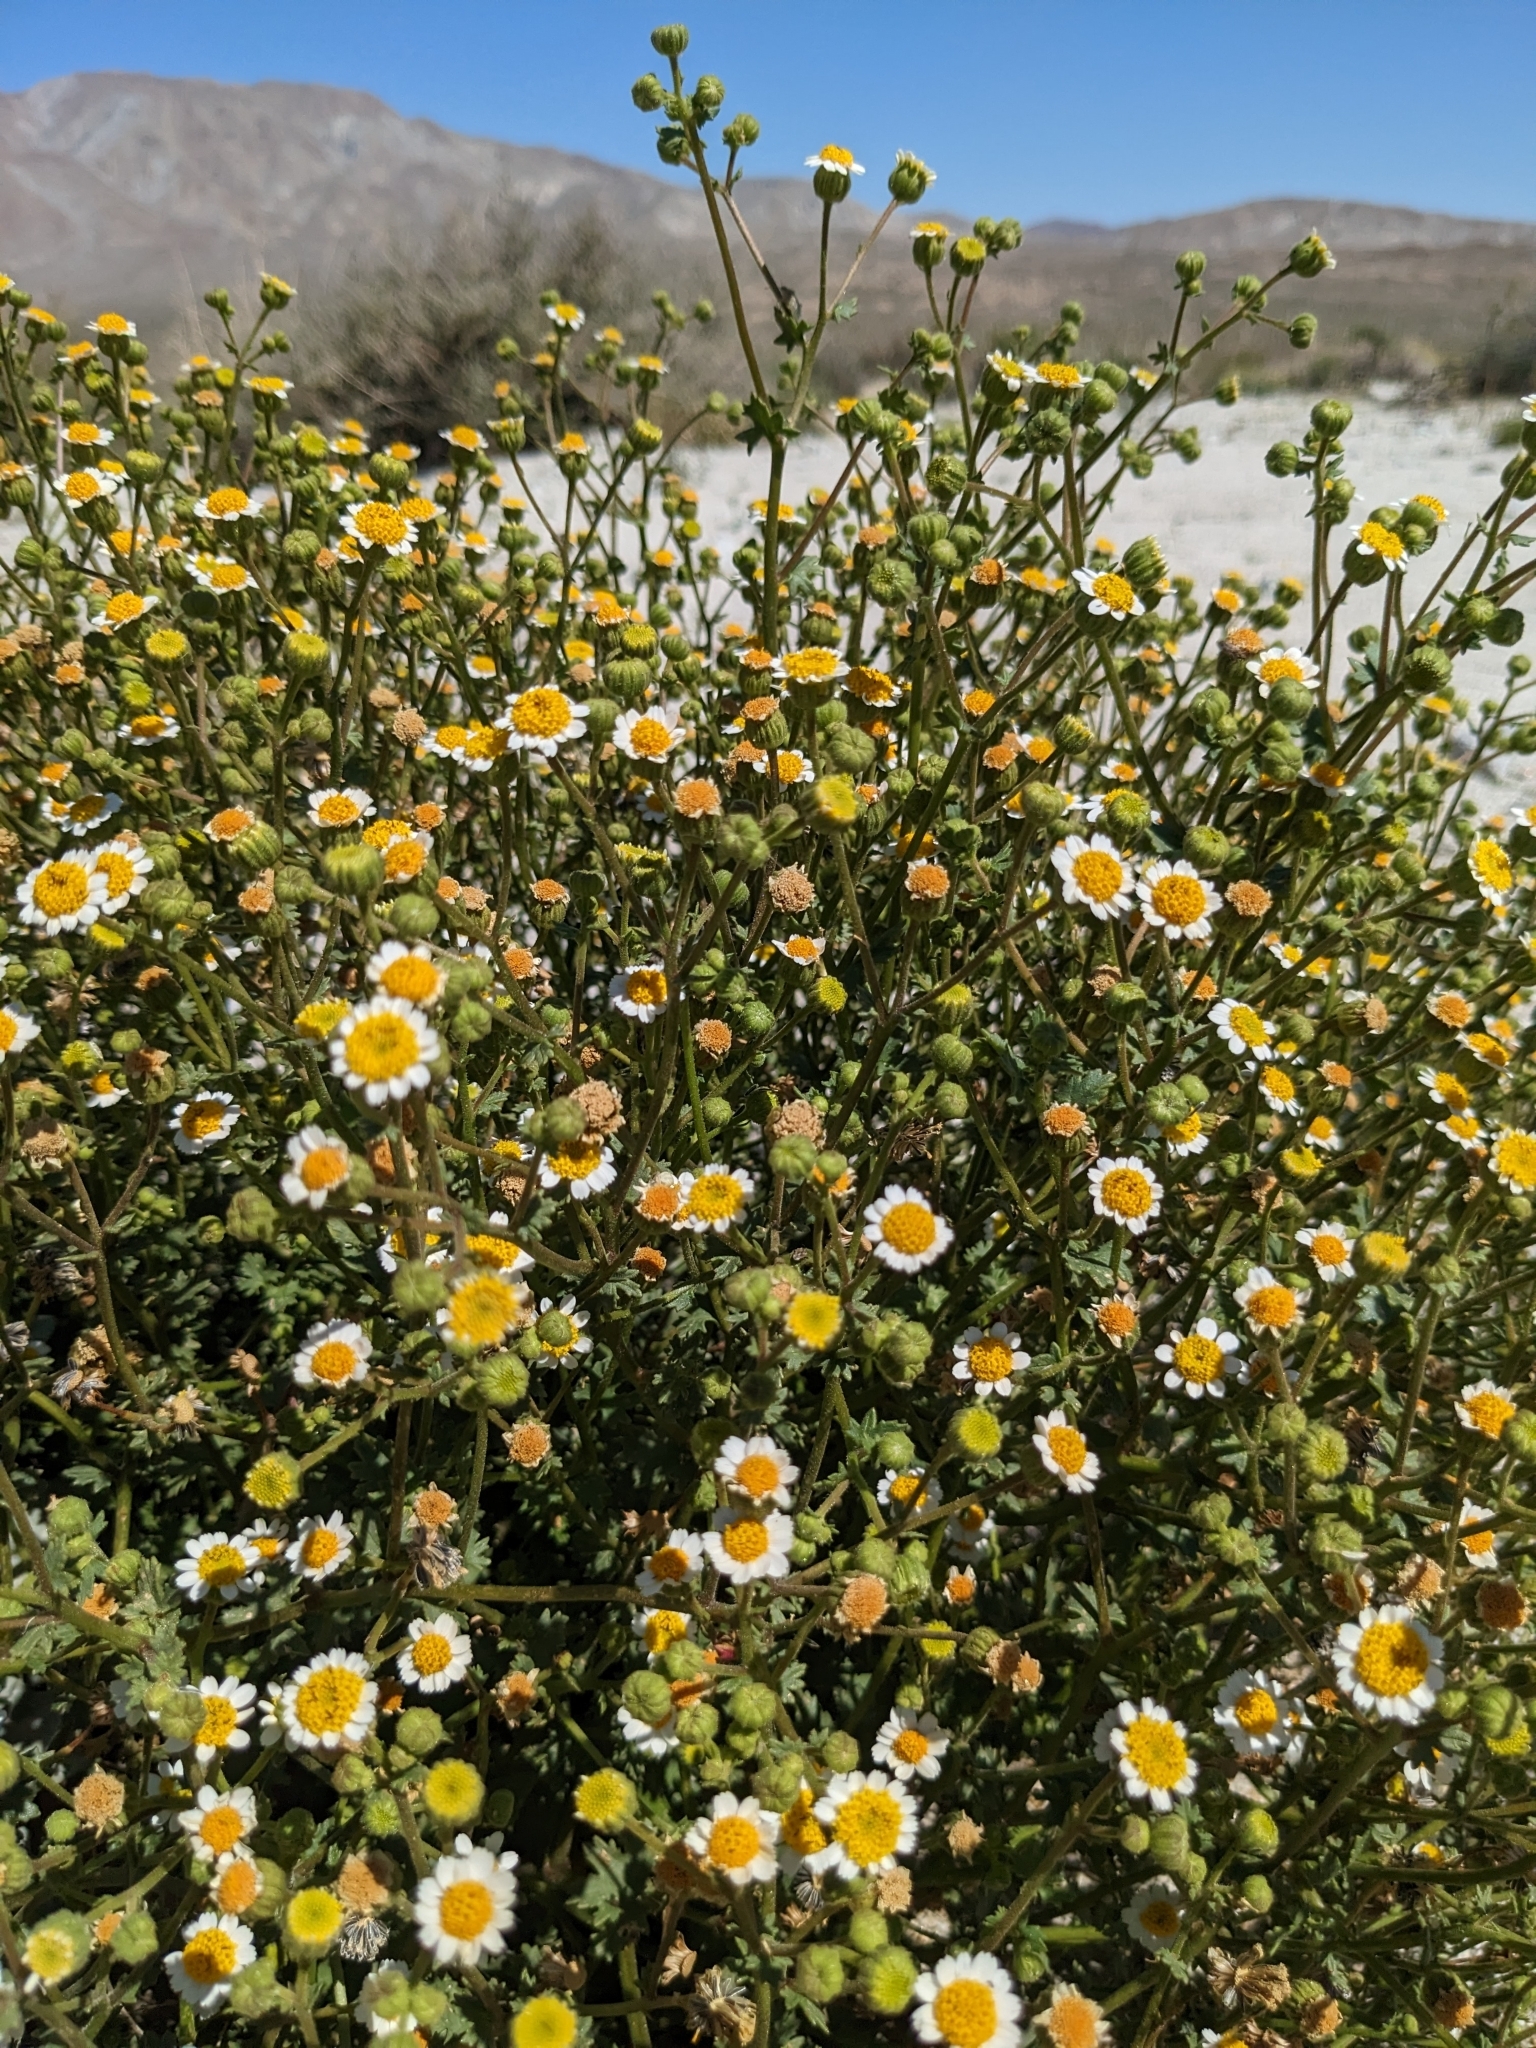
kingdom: Plantae
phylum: Tracheophyta
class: Magnoliopsida
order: Asterales
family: Asteraceae
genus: Laphamia
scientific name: Laphamia emoryi
